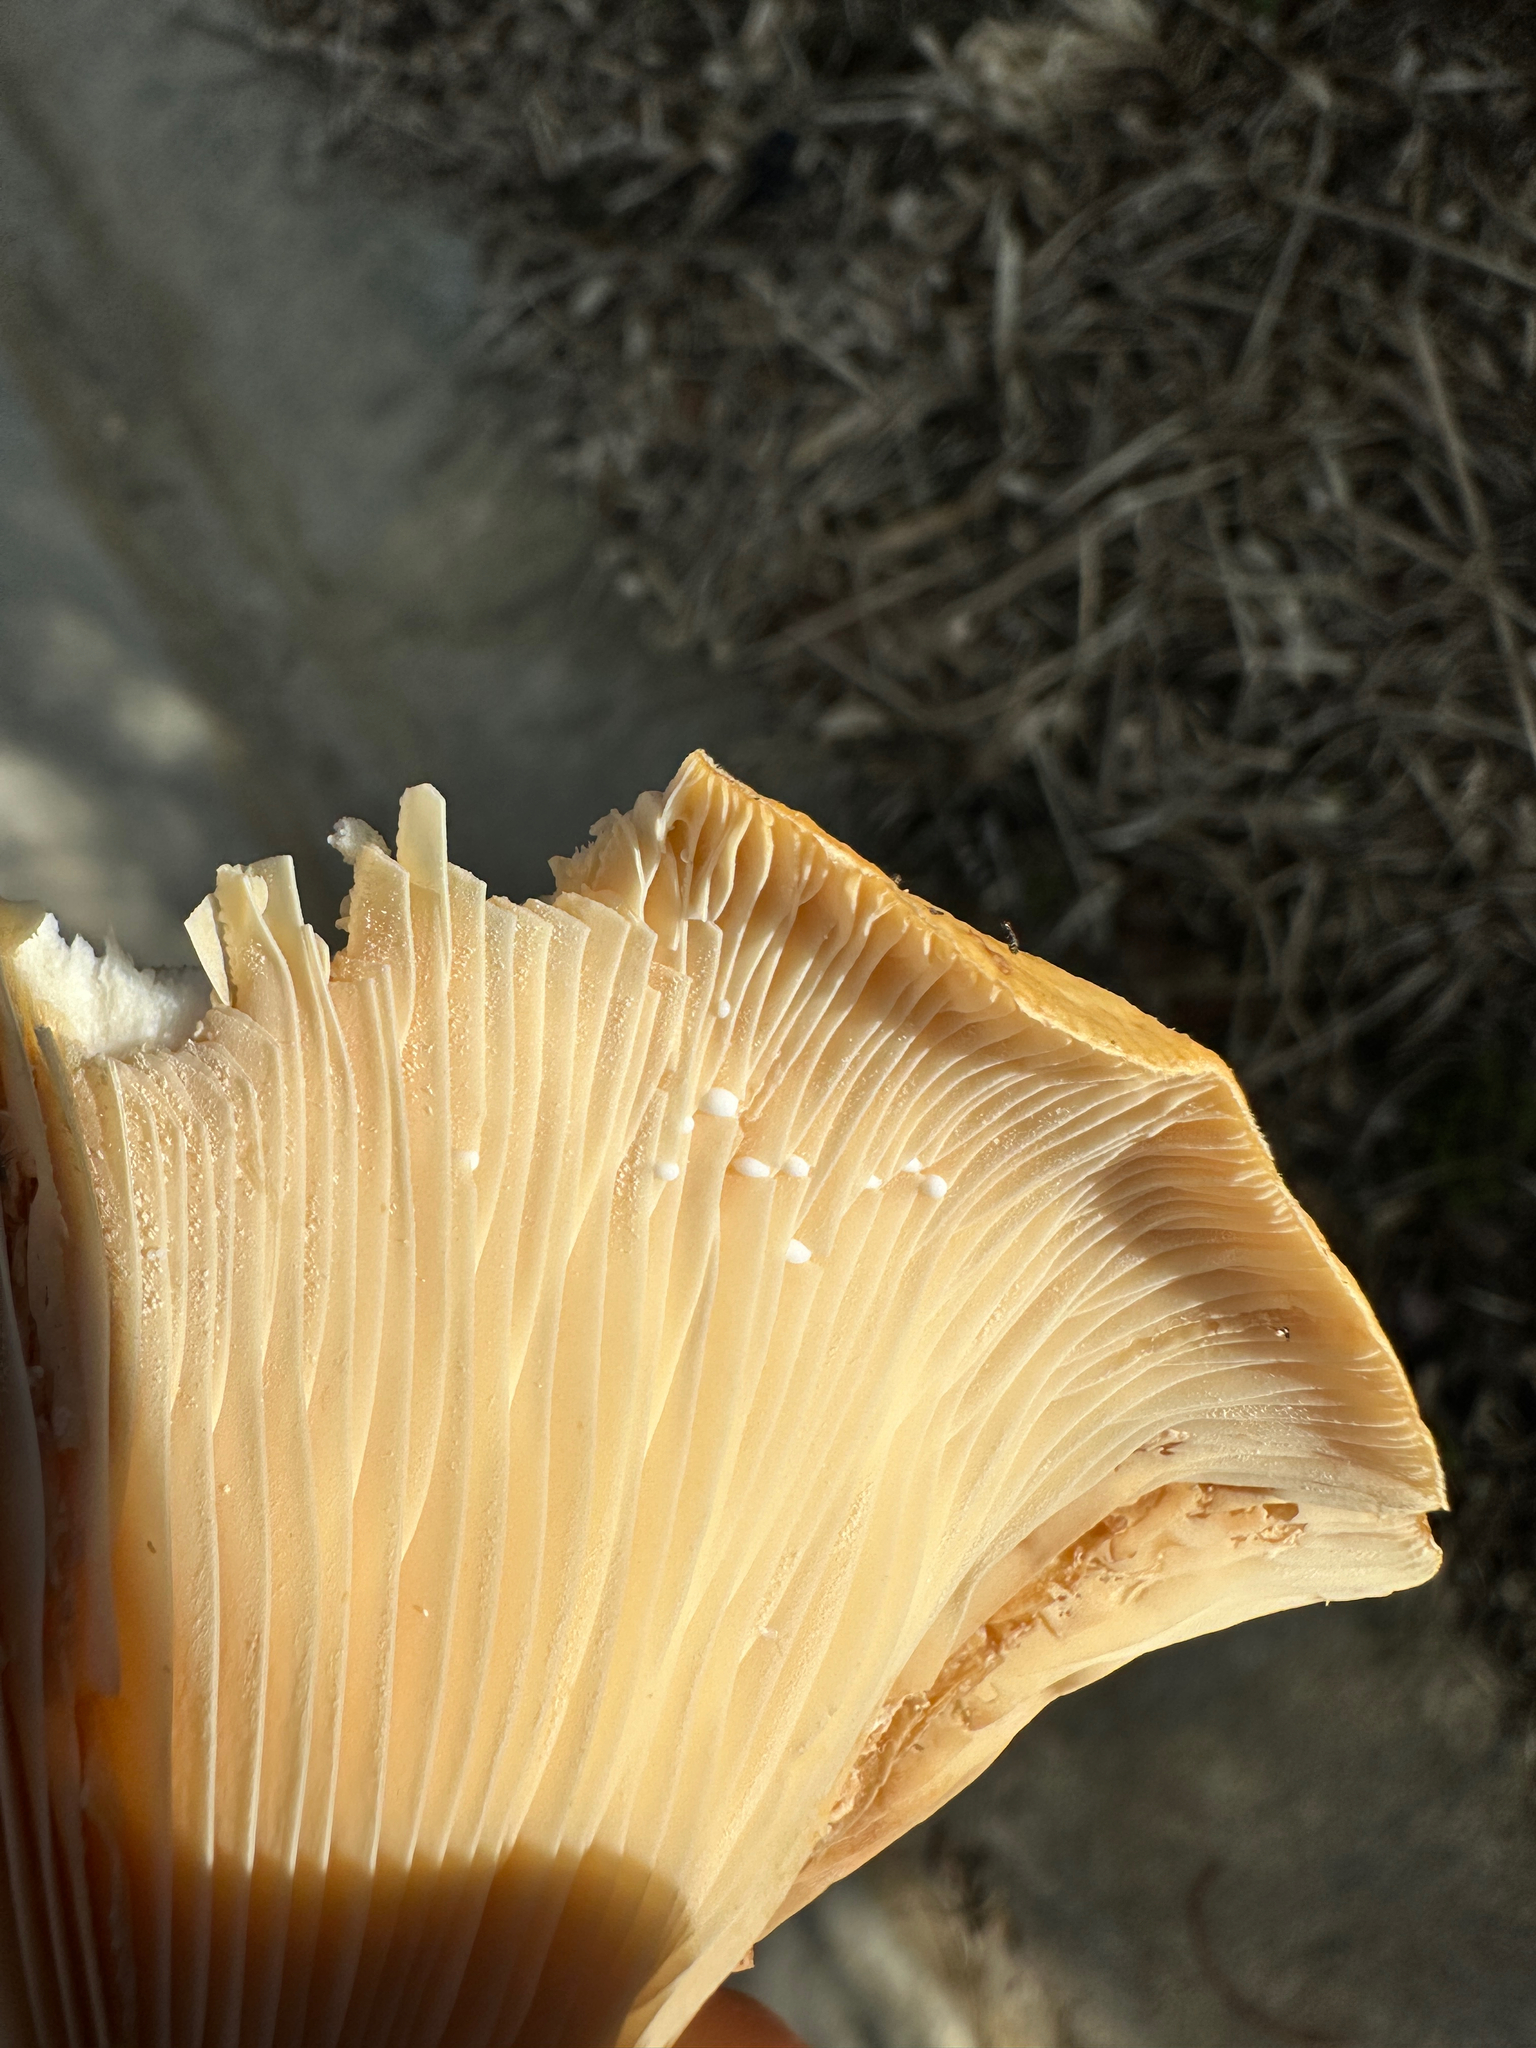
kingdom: Fungi
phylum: Basidiomycota
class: Agaricomycetes
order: Russulales
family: Russulaceae
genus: Lactarius
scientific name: Lactarius alnicola
